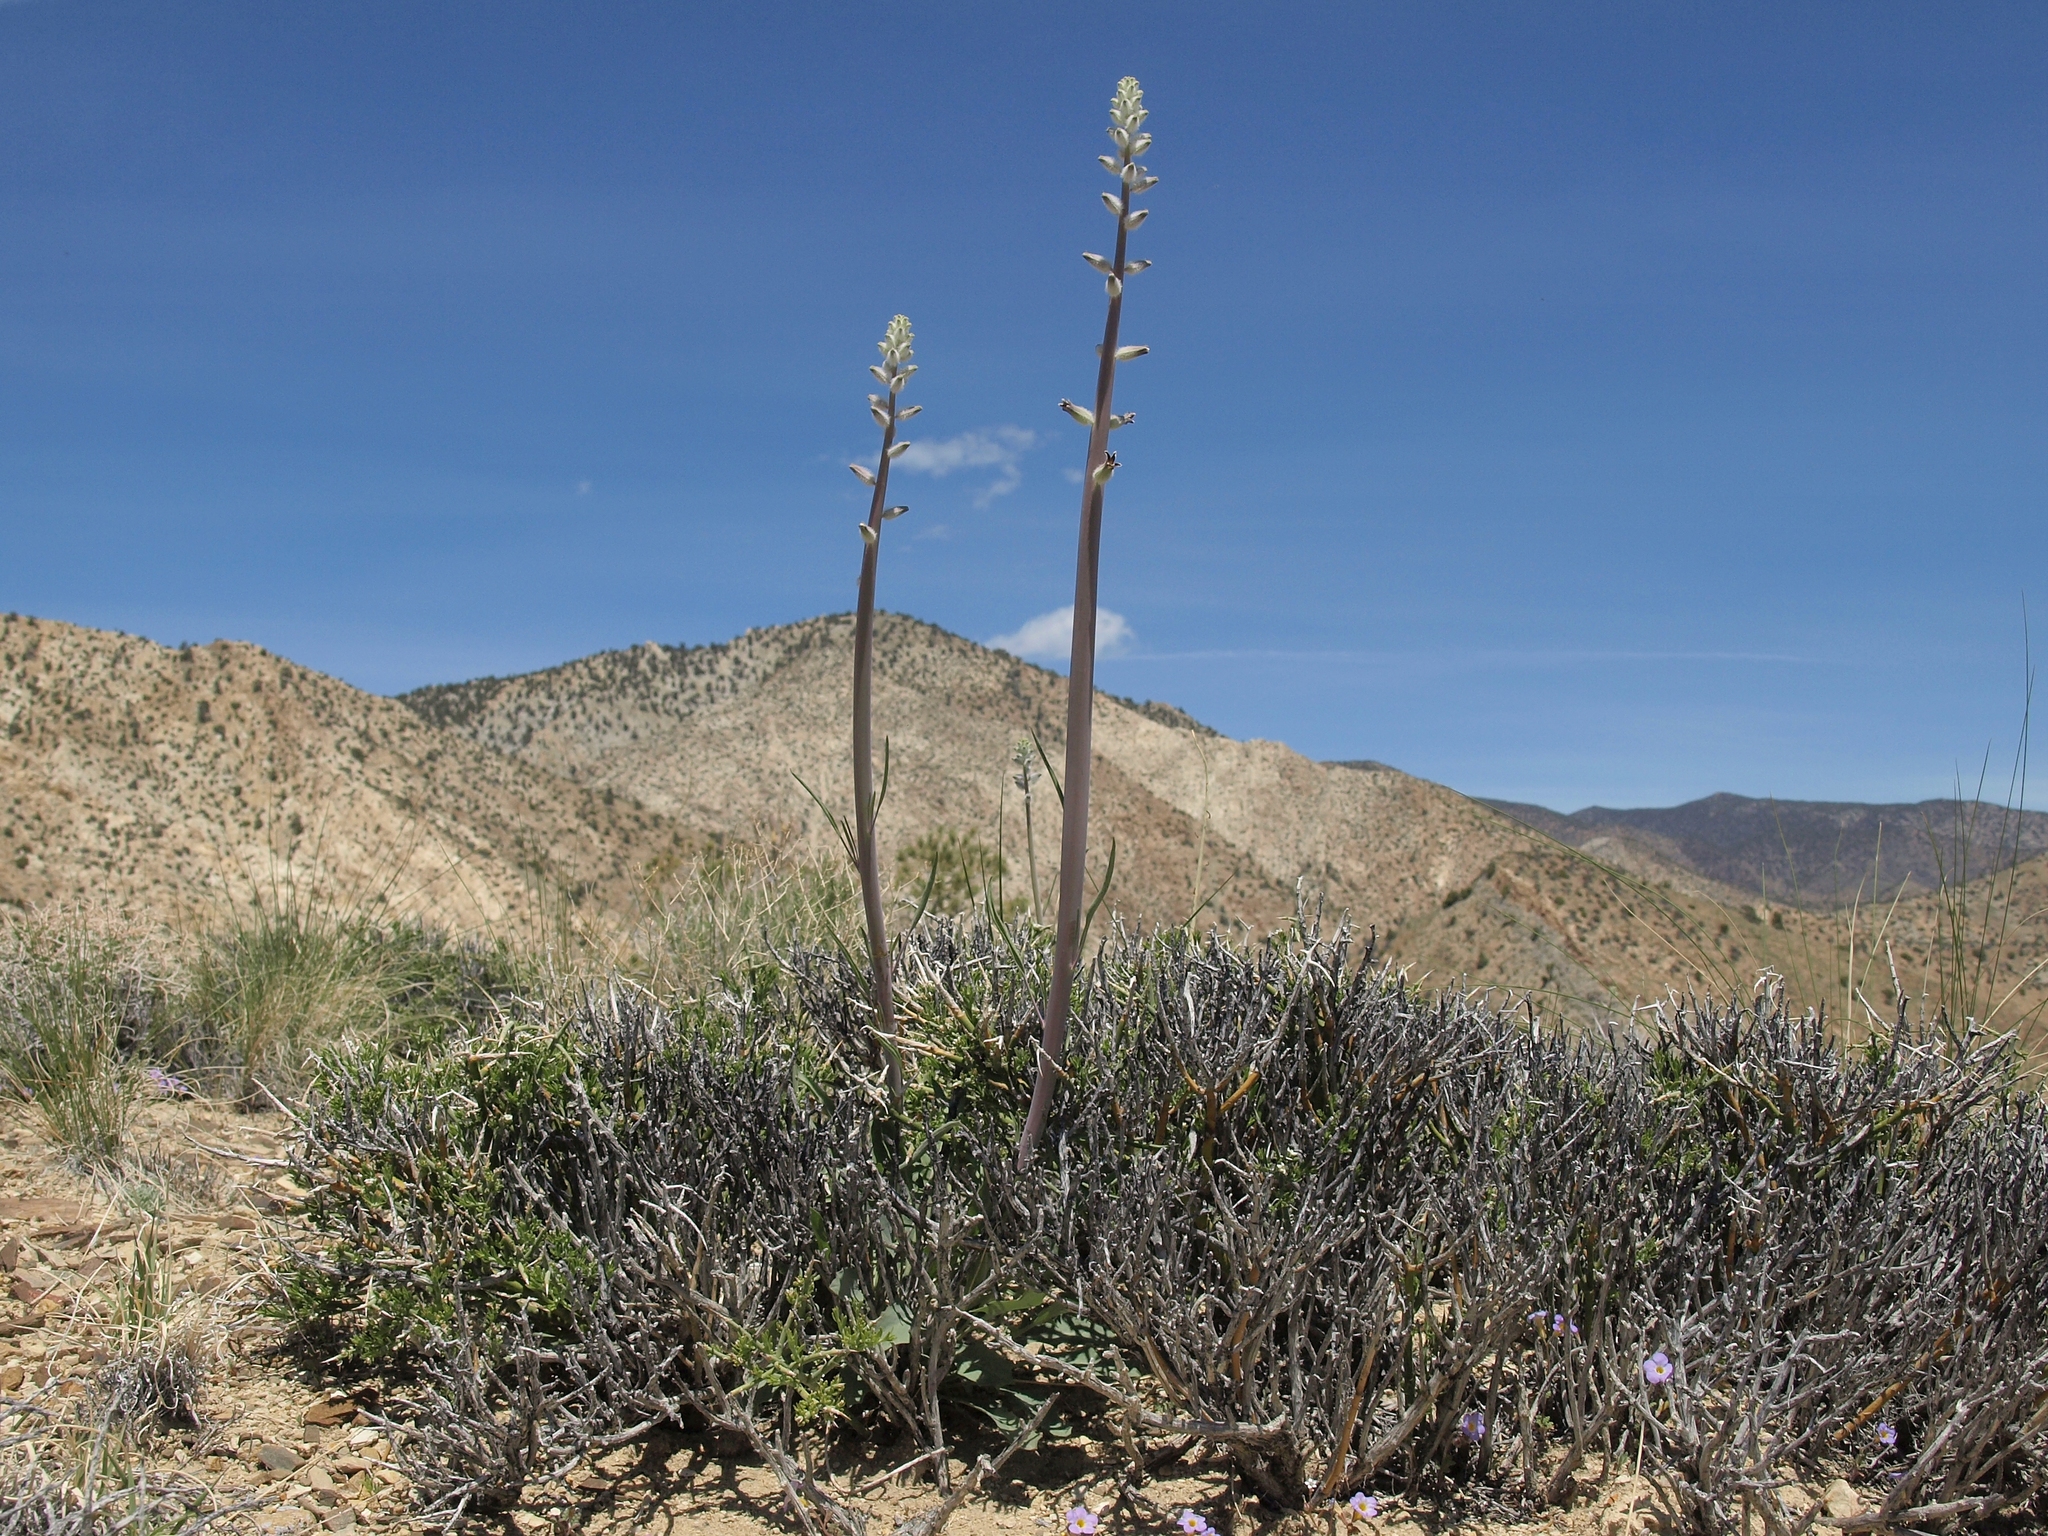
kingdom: Plantae
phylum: Tracheophyta
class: Magnoliopsida
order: Brassicales
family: Brassicaceae
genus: Streptanthus
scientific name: Streptanthus crassicaulis
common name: Thick-stem wild cabbage
